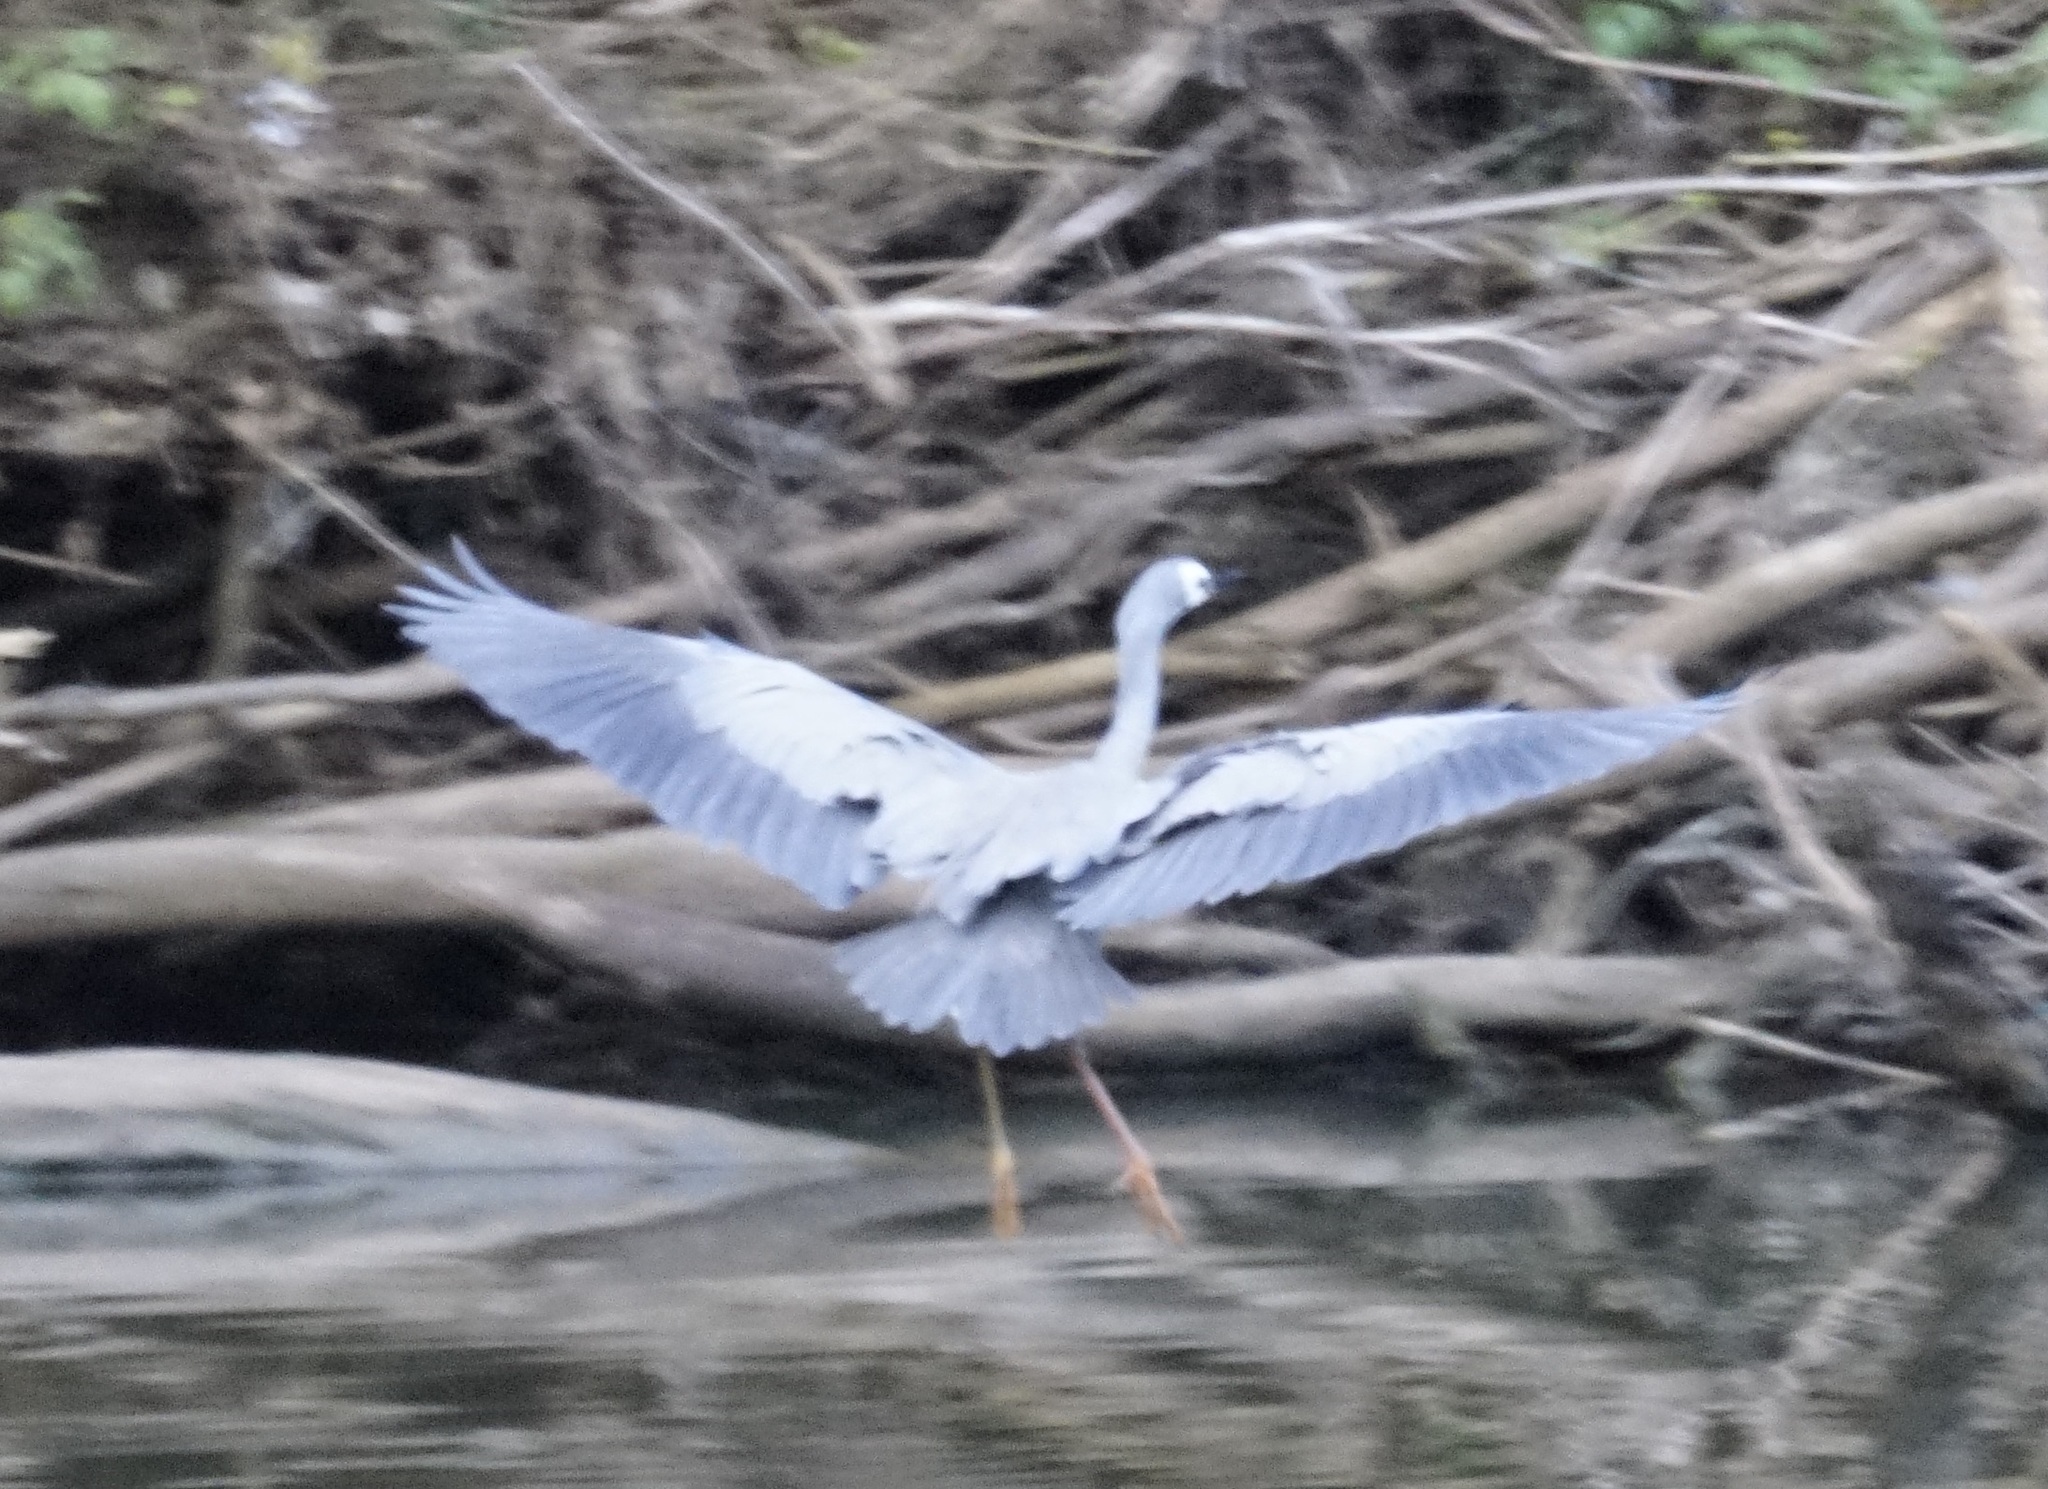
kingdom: Animalia
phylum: Chordata
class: Aves
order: Pelecaniformes
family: Ardeidae
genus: Egretta
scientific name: Egretta novaehollandiae
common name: White-faced heron
